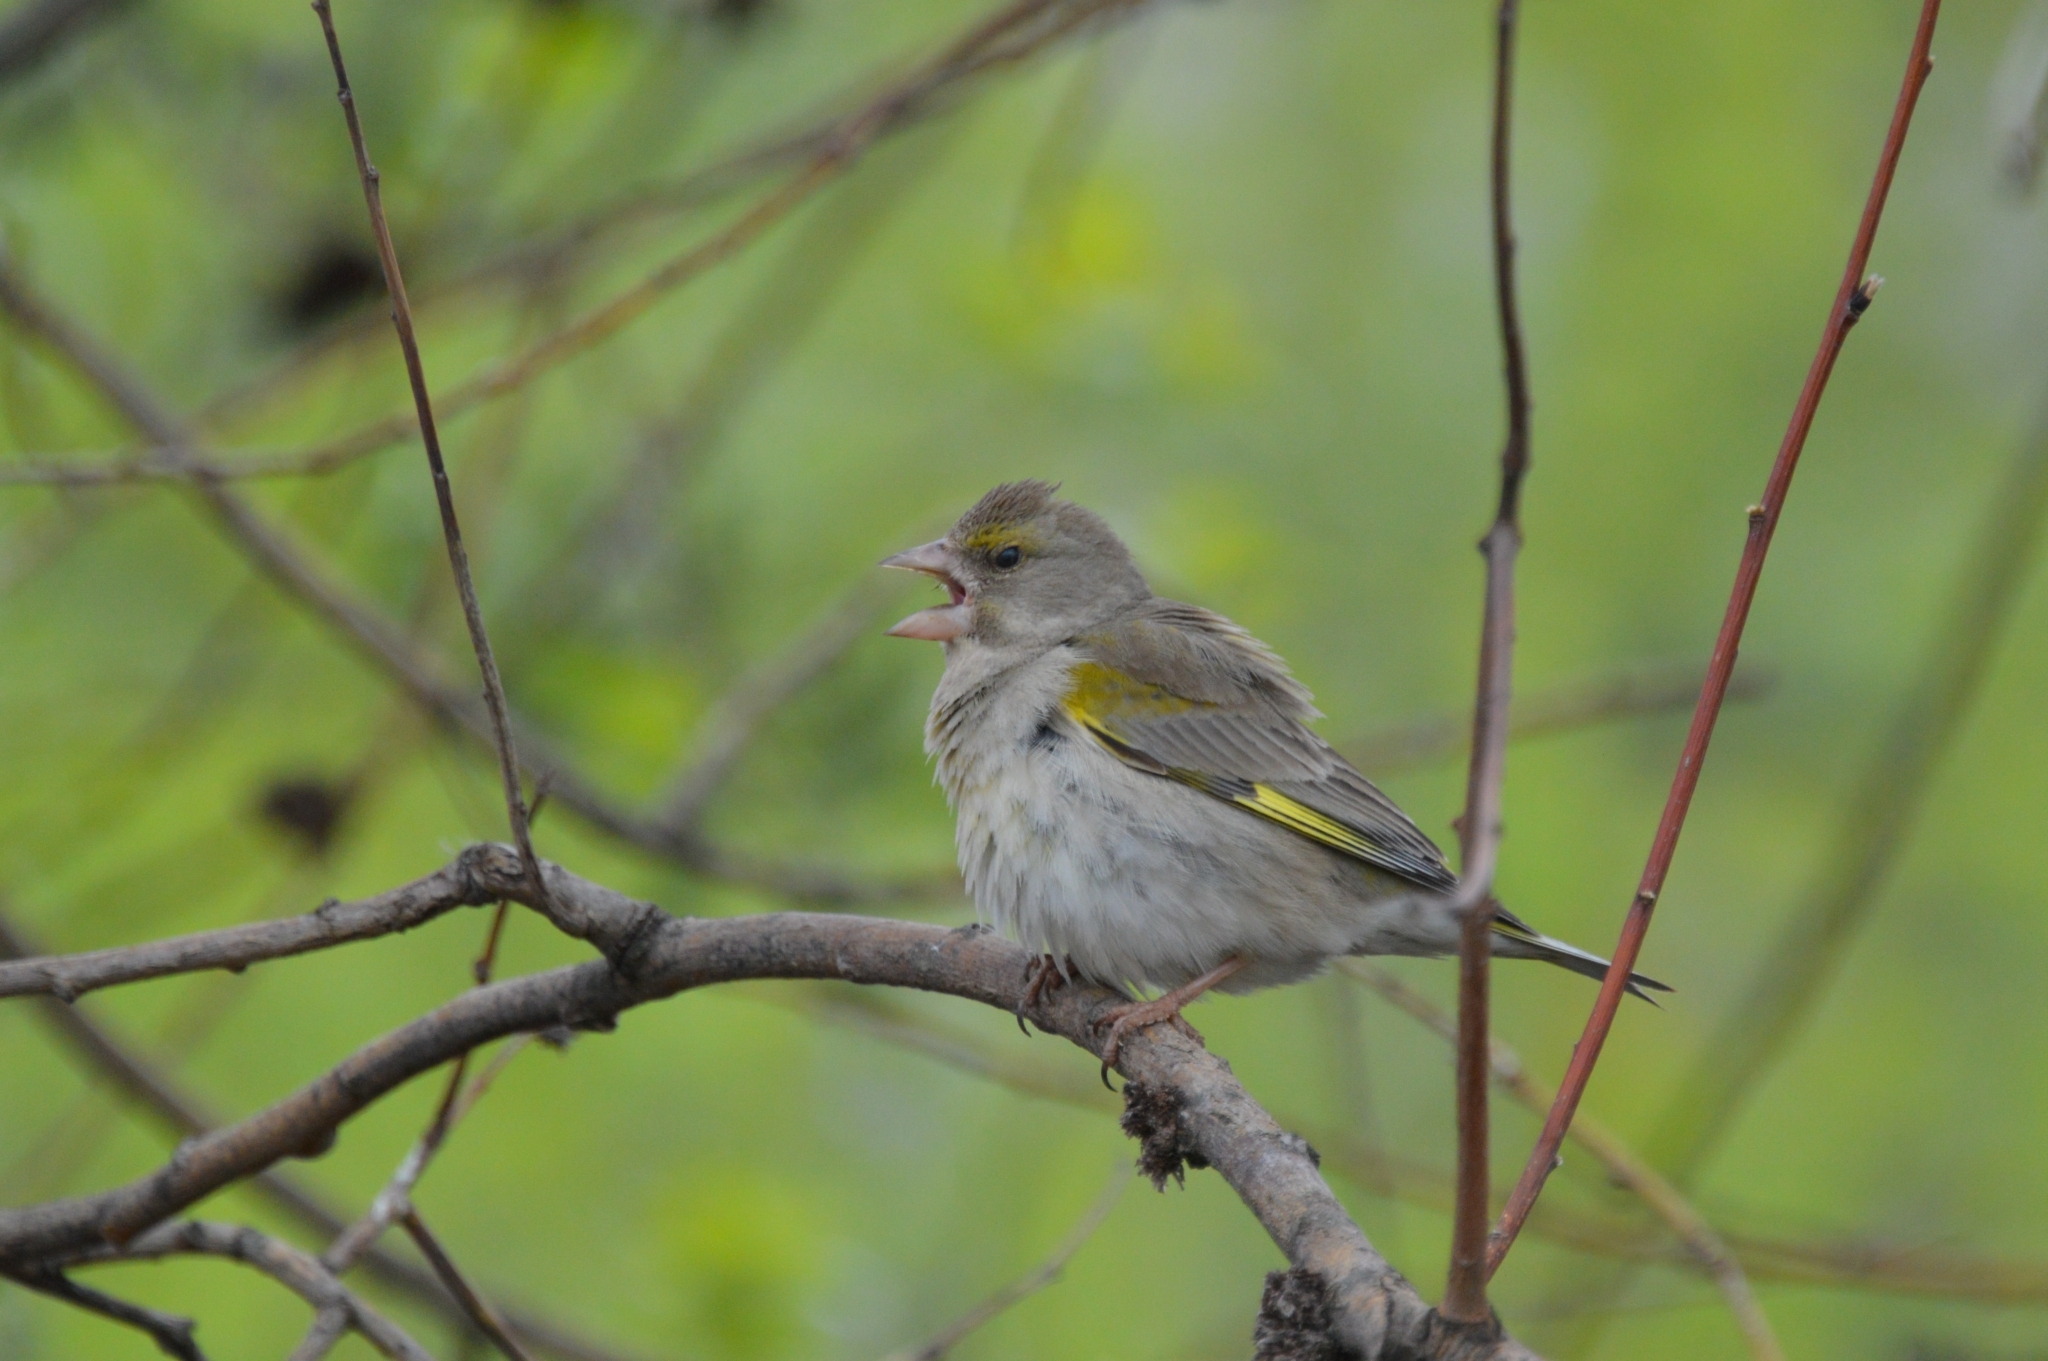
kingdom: Plantae
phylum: Tracheophyta
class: Liliopsida
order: Poales
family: Poaceae
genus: Chloris
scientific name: Chloris chloris
